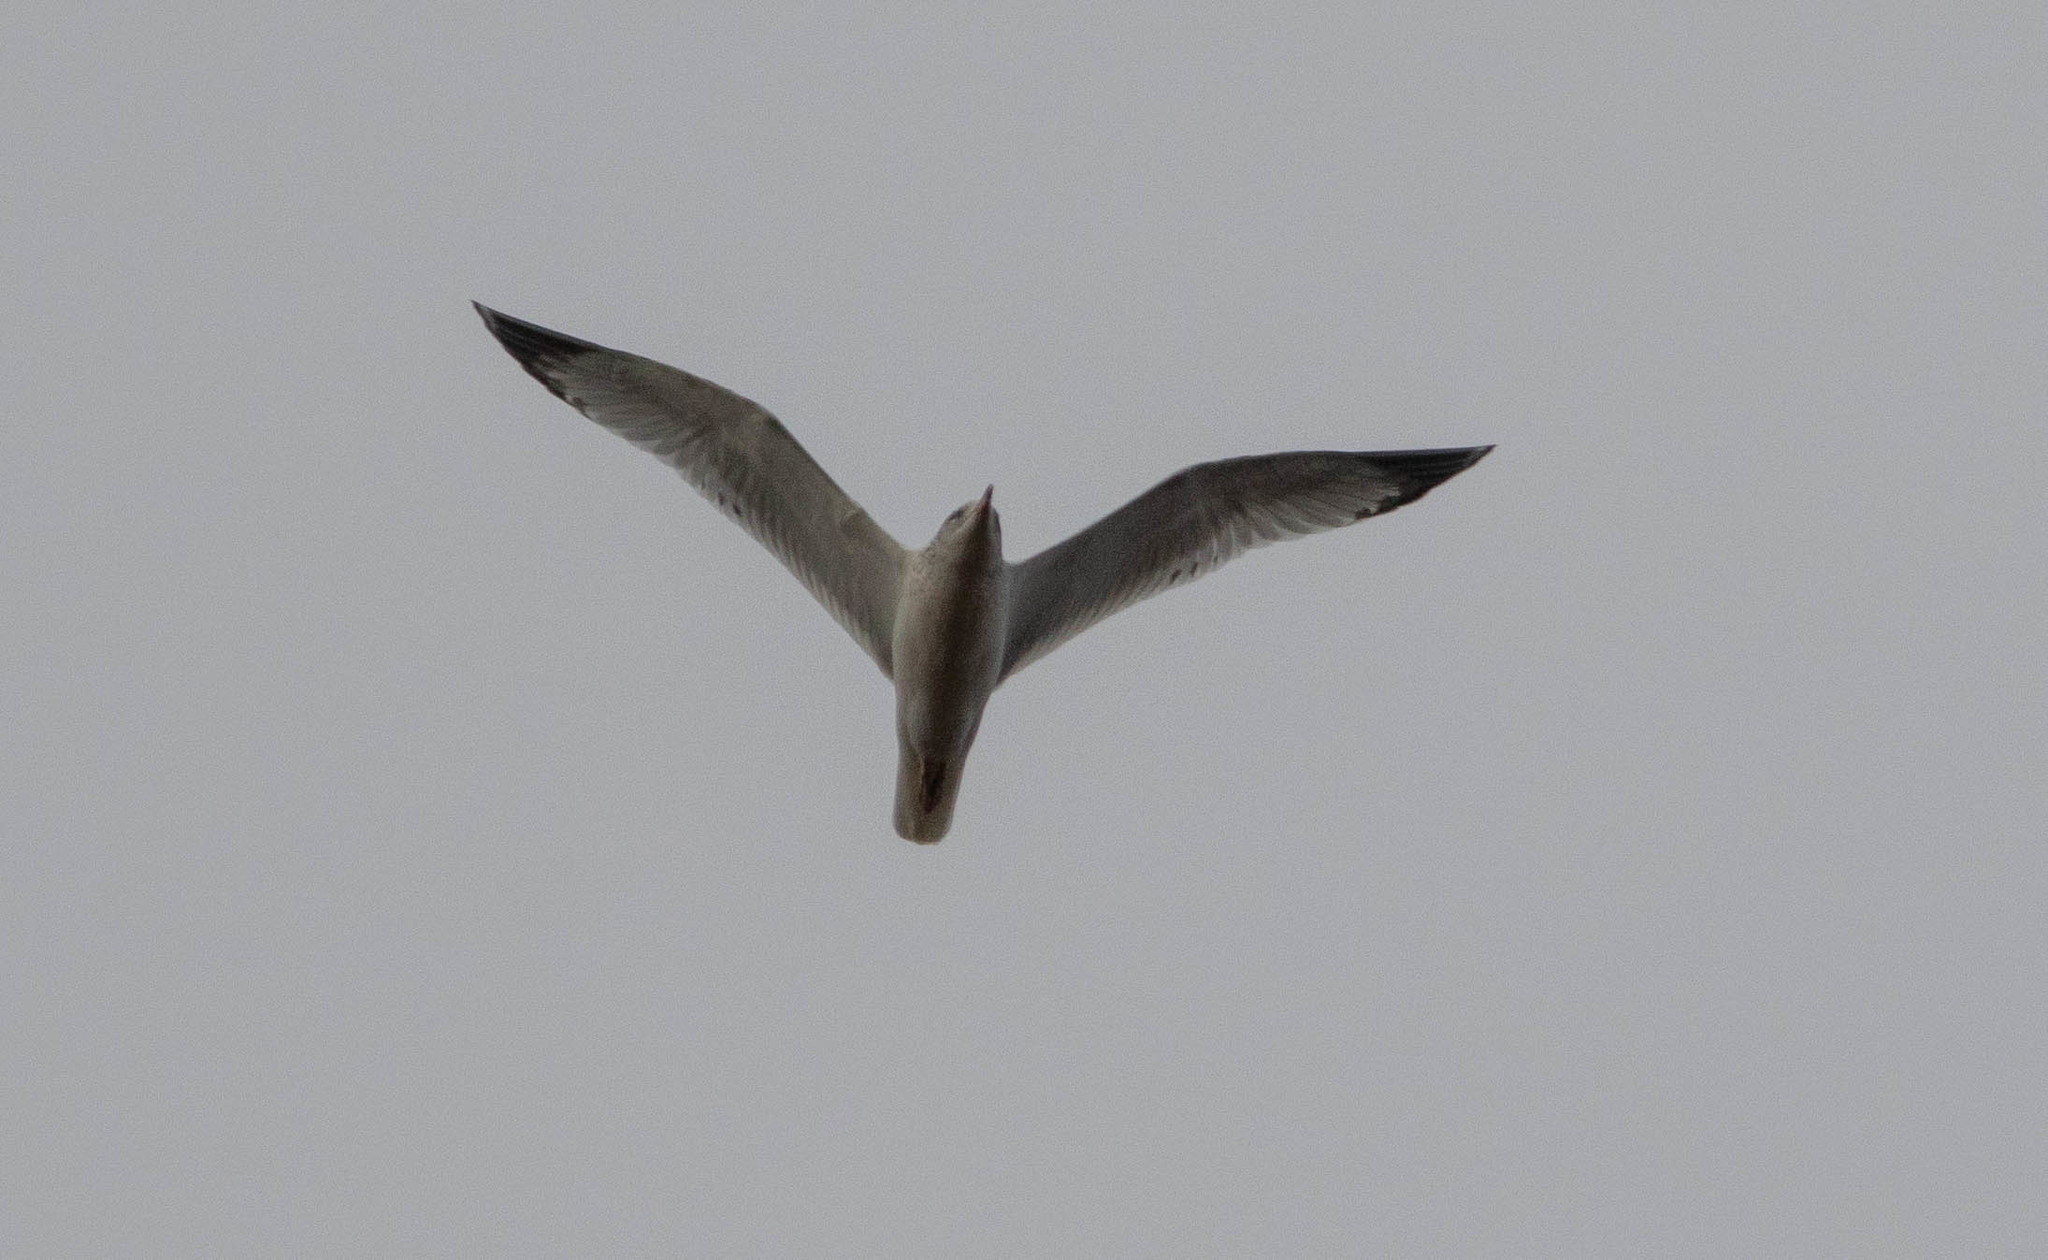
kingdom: Animalia
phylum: Chordata
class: Aves
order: Charadriiformes
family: Laridae
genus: Larus
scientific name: Larus delawarensis
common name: Ring-billed gull
